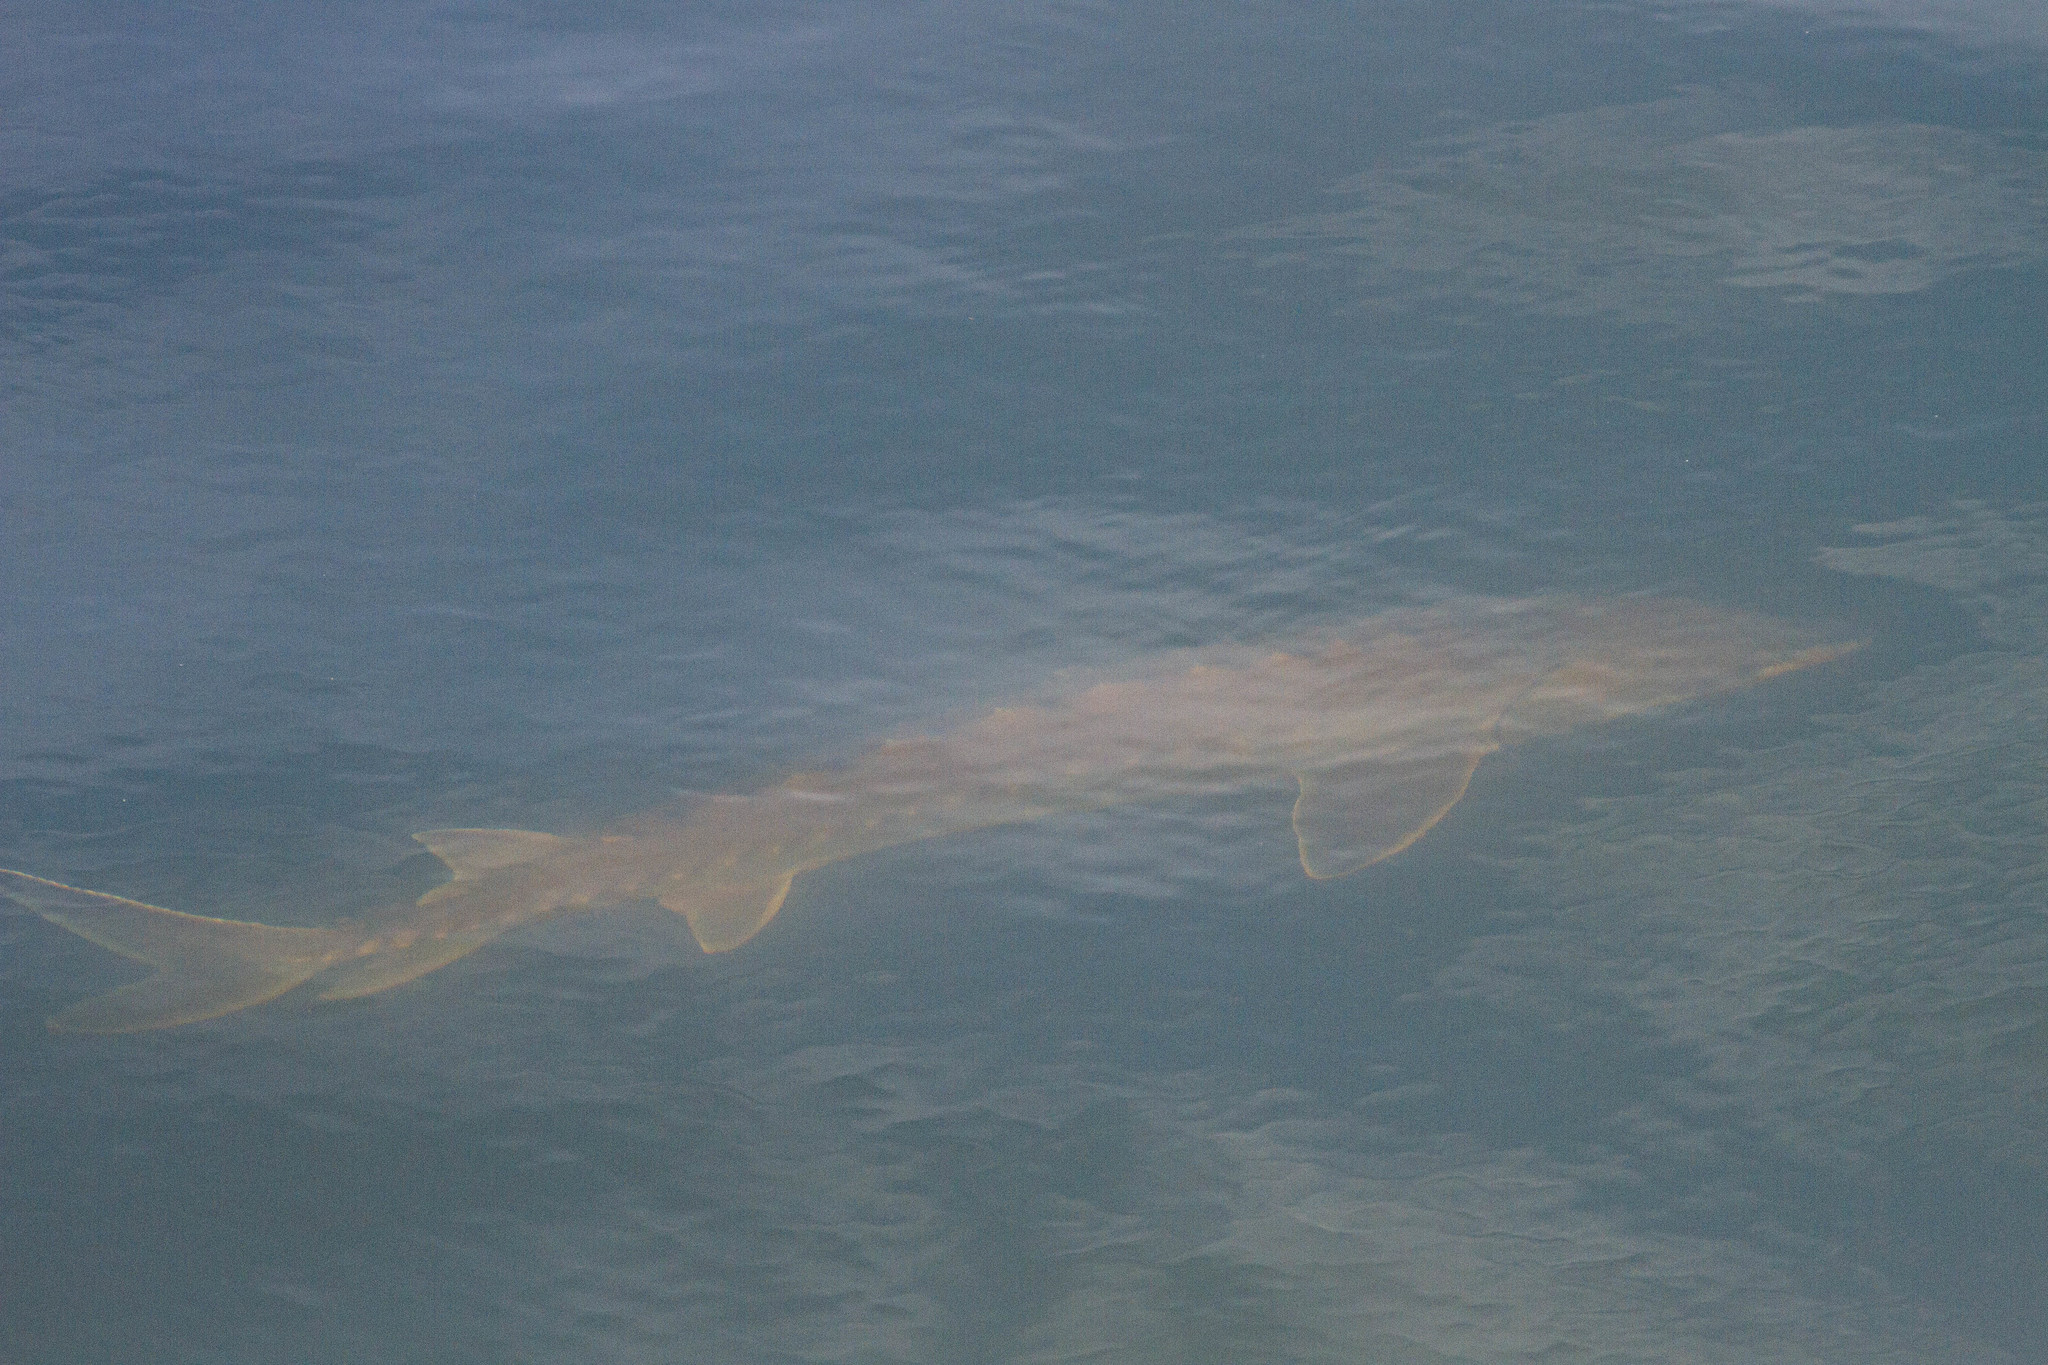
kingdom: Animalia
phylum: Chordata
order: Acipenseriformes
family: Acipenseridae
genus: Acipenser
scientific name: Acipenser oxyrinchus
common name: Atlantic sturgeon
